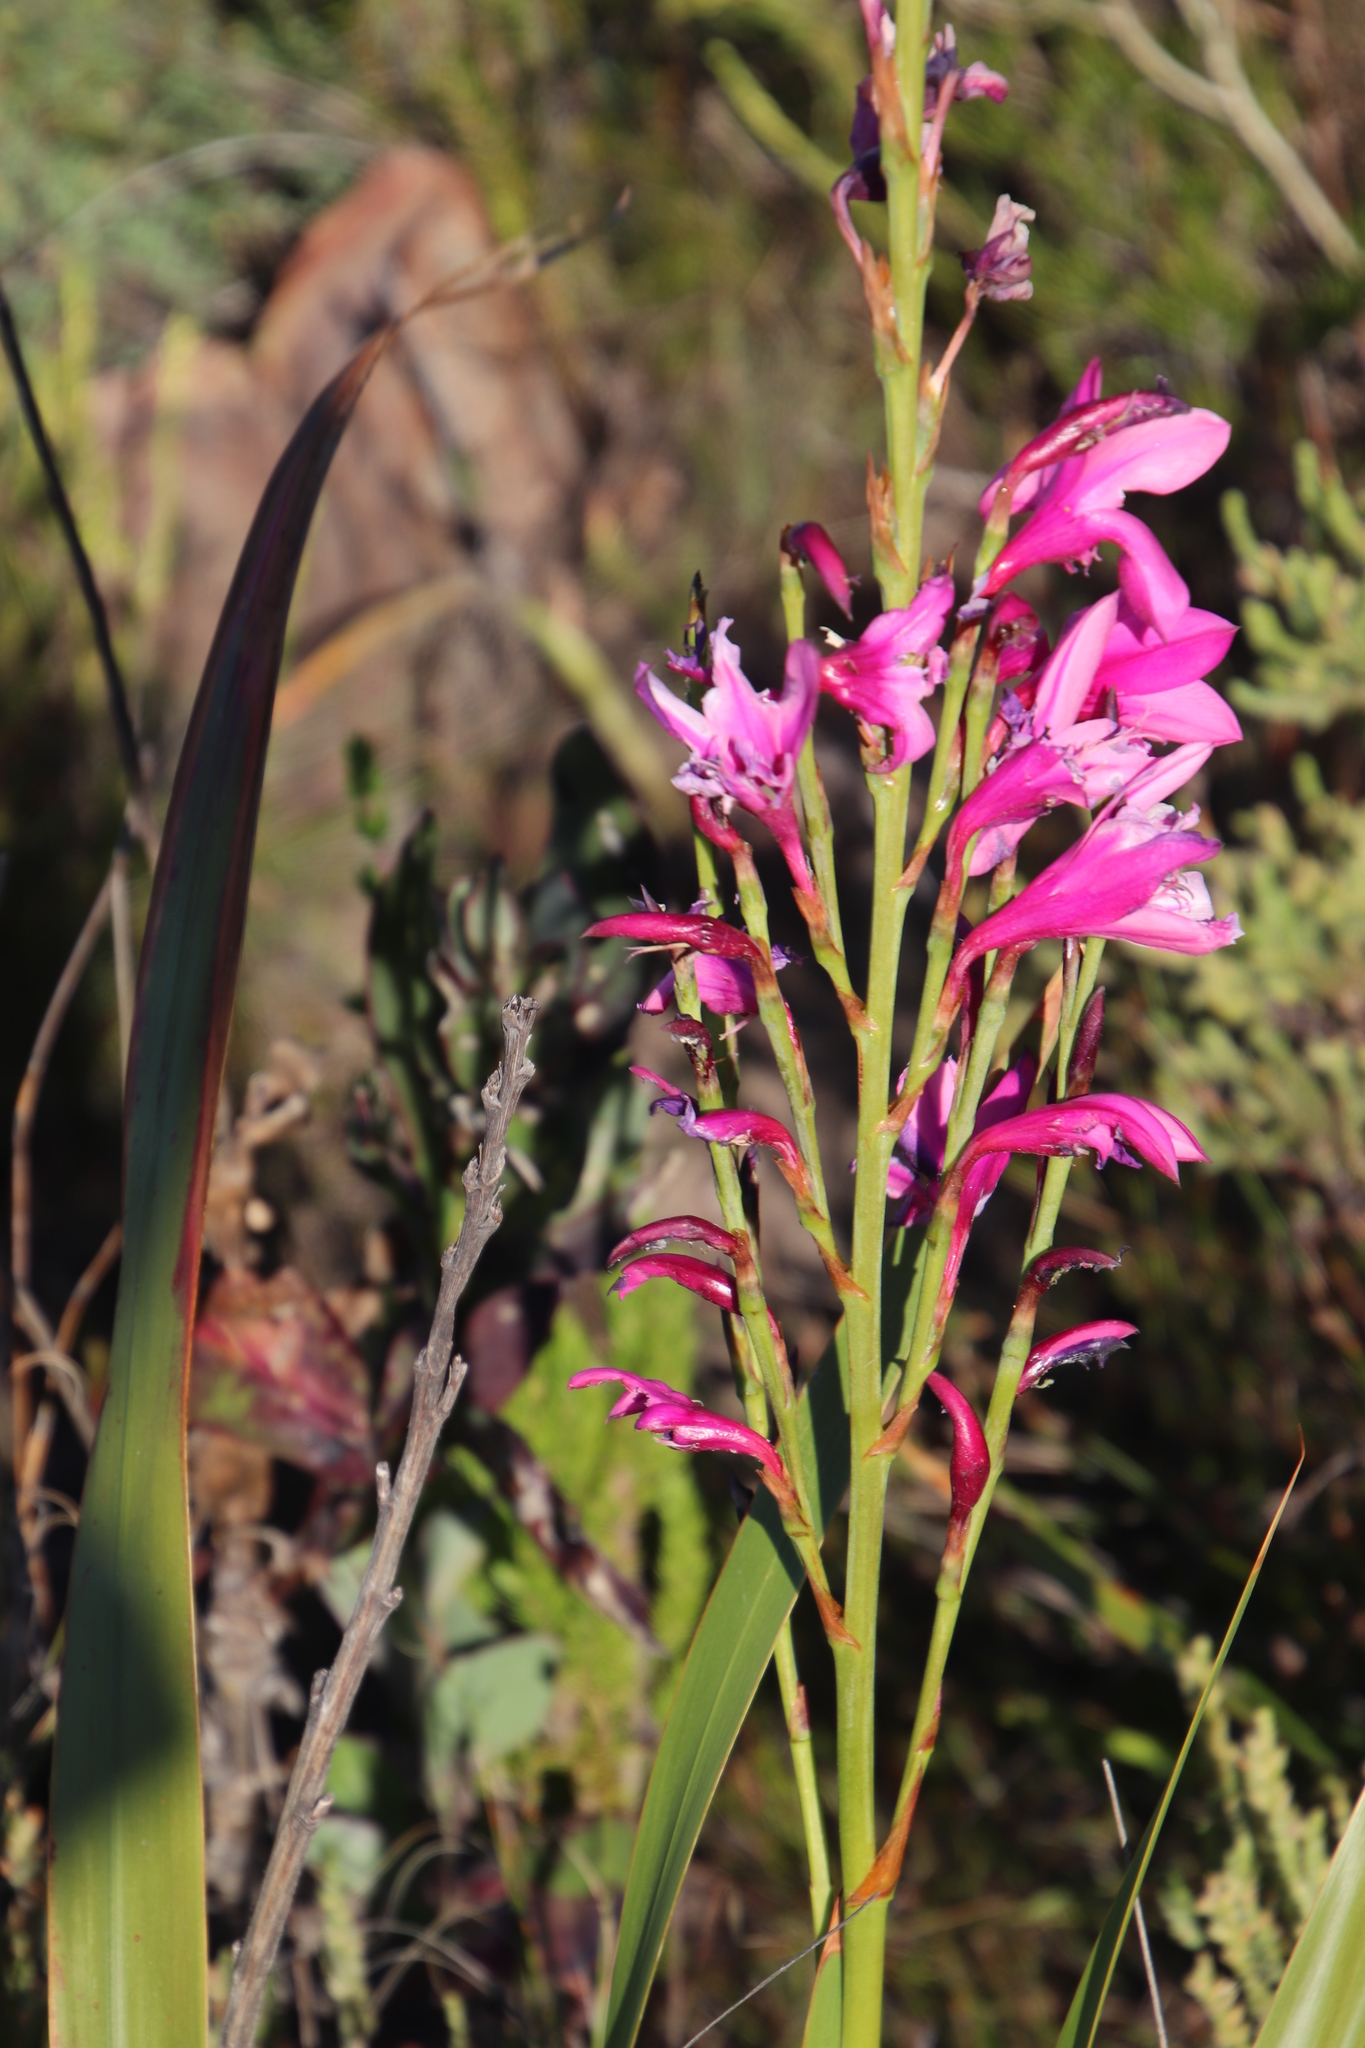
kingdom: Plantae
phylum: Tracheophyta
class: Liliopsida
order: Asparagales
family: Iridaceae
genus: Watsonia
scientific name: Watsonia borbonica
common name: Bugle-lily
